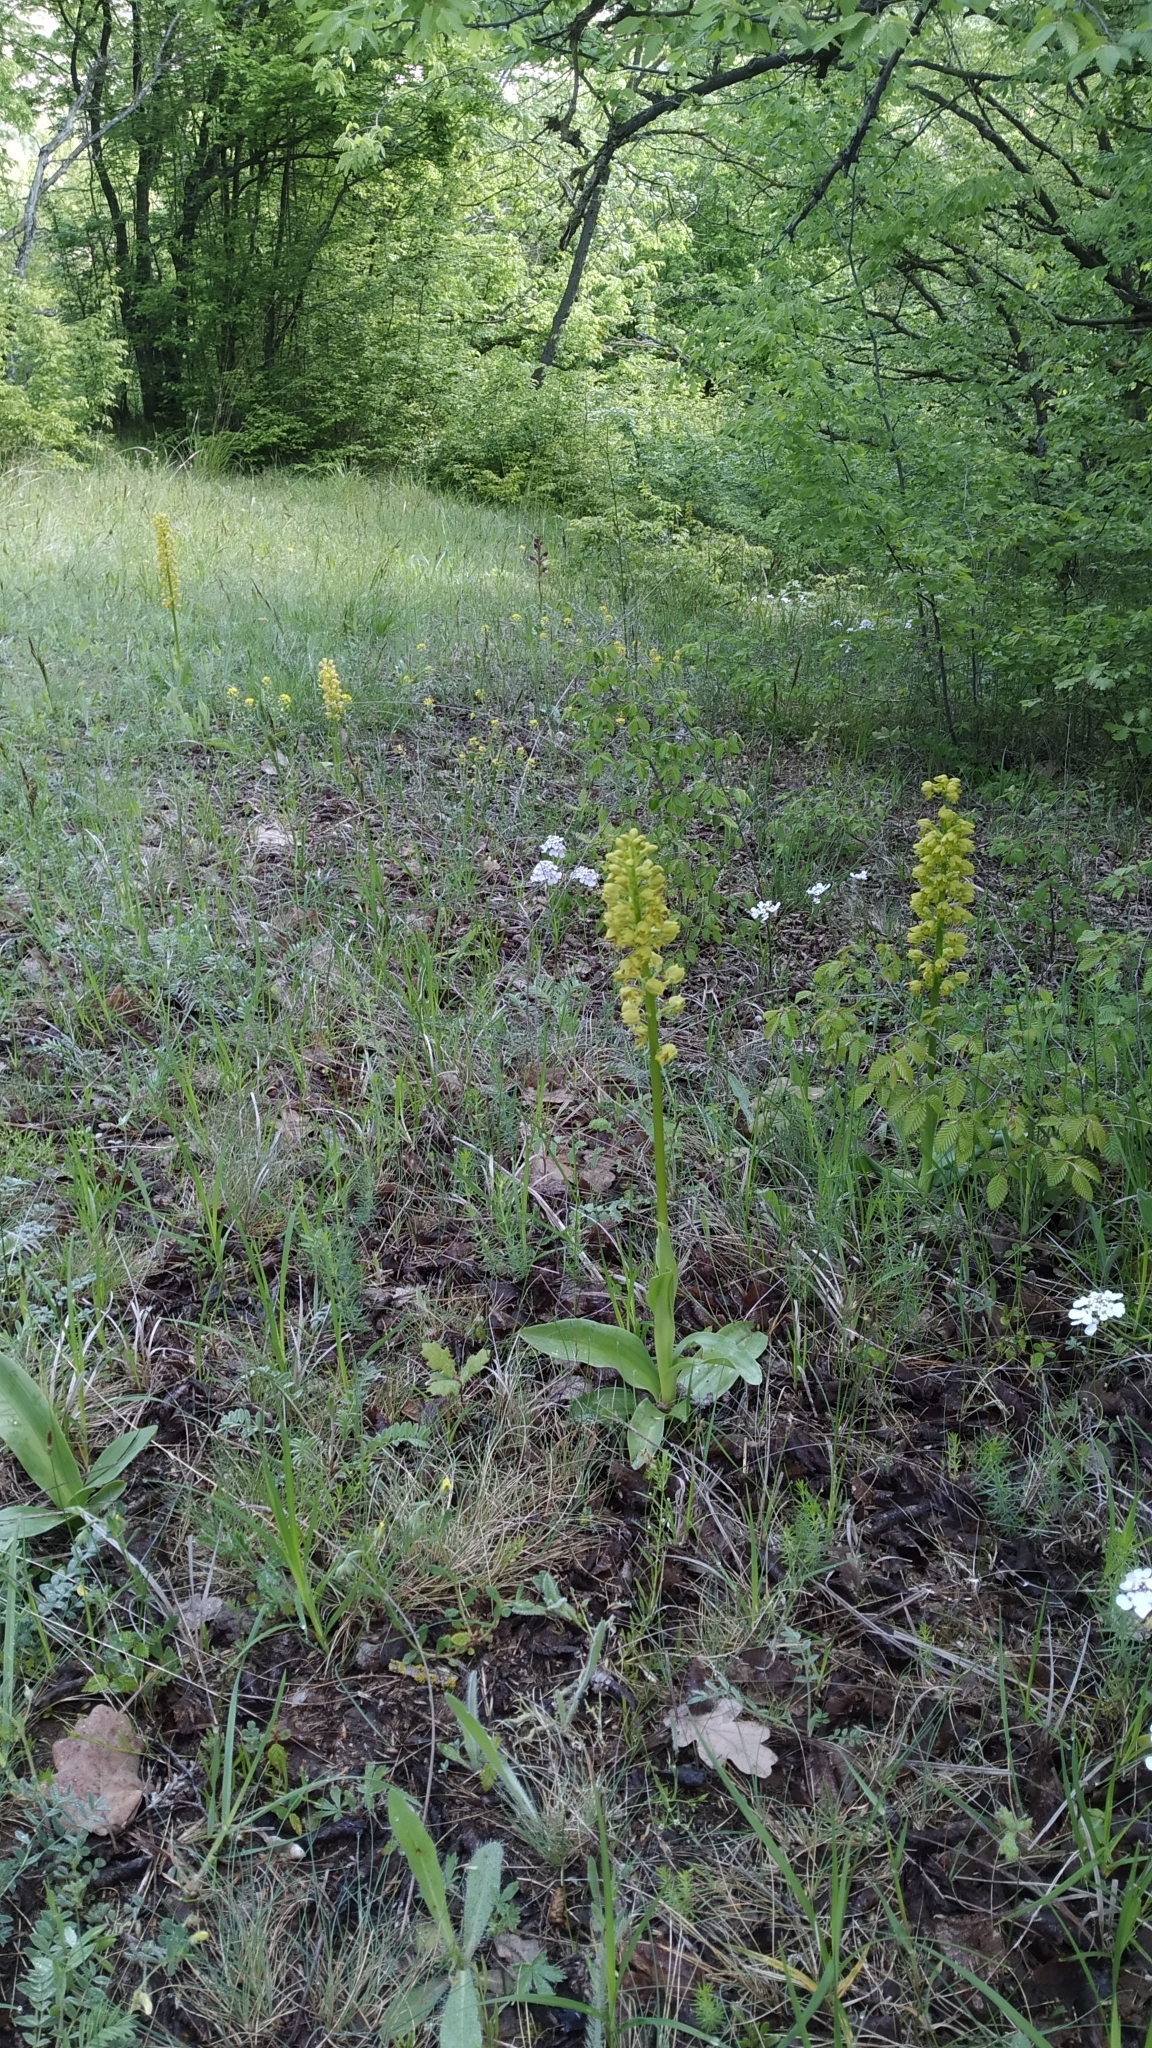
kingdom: Plantae
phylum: Tracheophyta
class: Liliopsida
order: Asparagales
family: Orchidaceae
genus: Orchis
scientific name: Orchis punctulata
